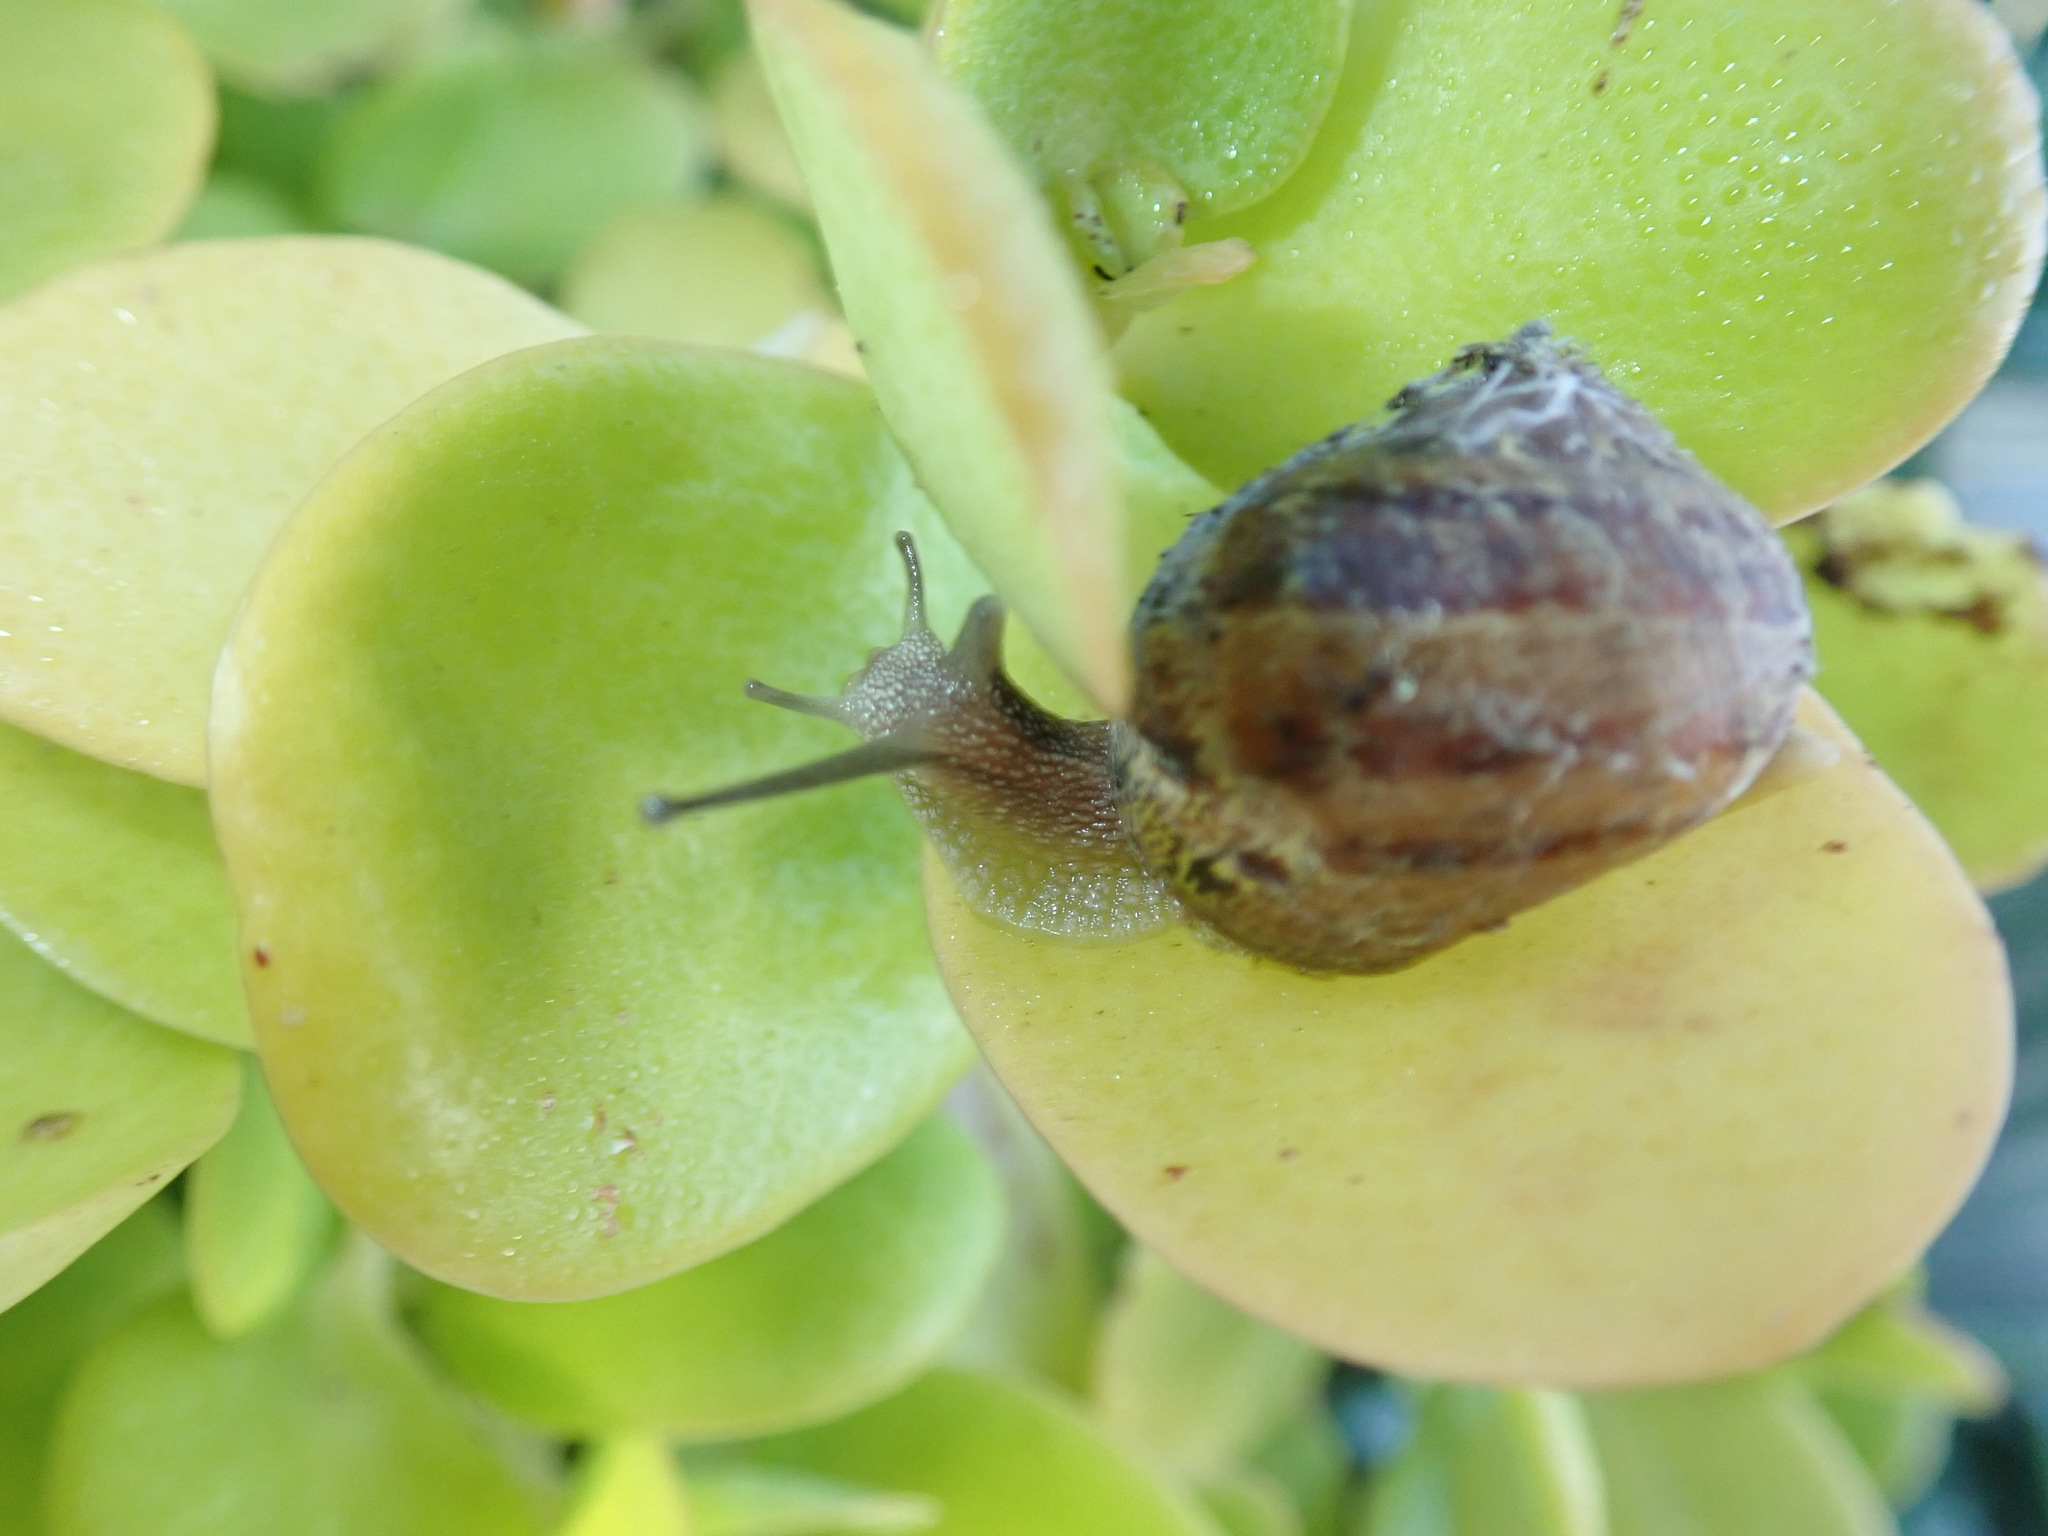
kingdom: Animalia
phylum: Mollusca
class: Gastropoda
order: Stylommatophora
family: Helicidae
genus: Cornu
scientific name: Cornu aspersum
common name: Brown garden snail
